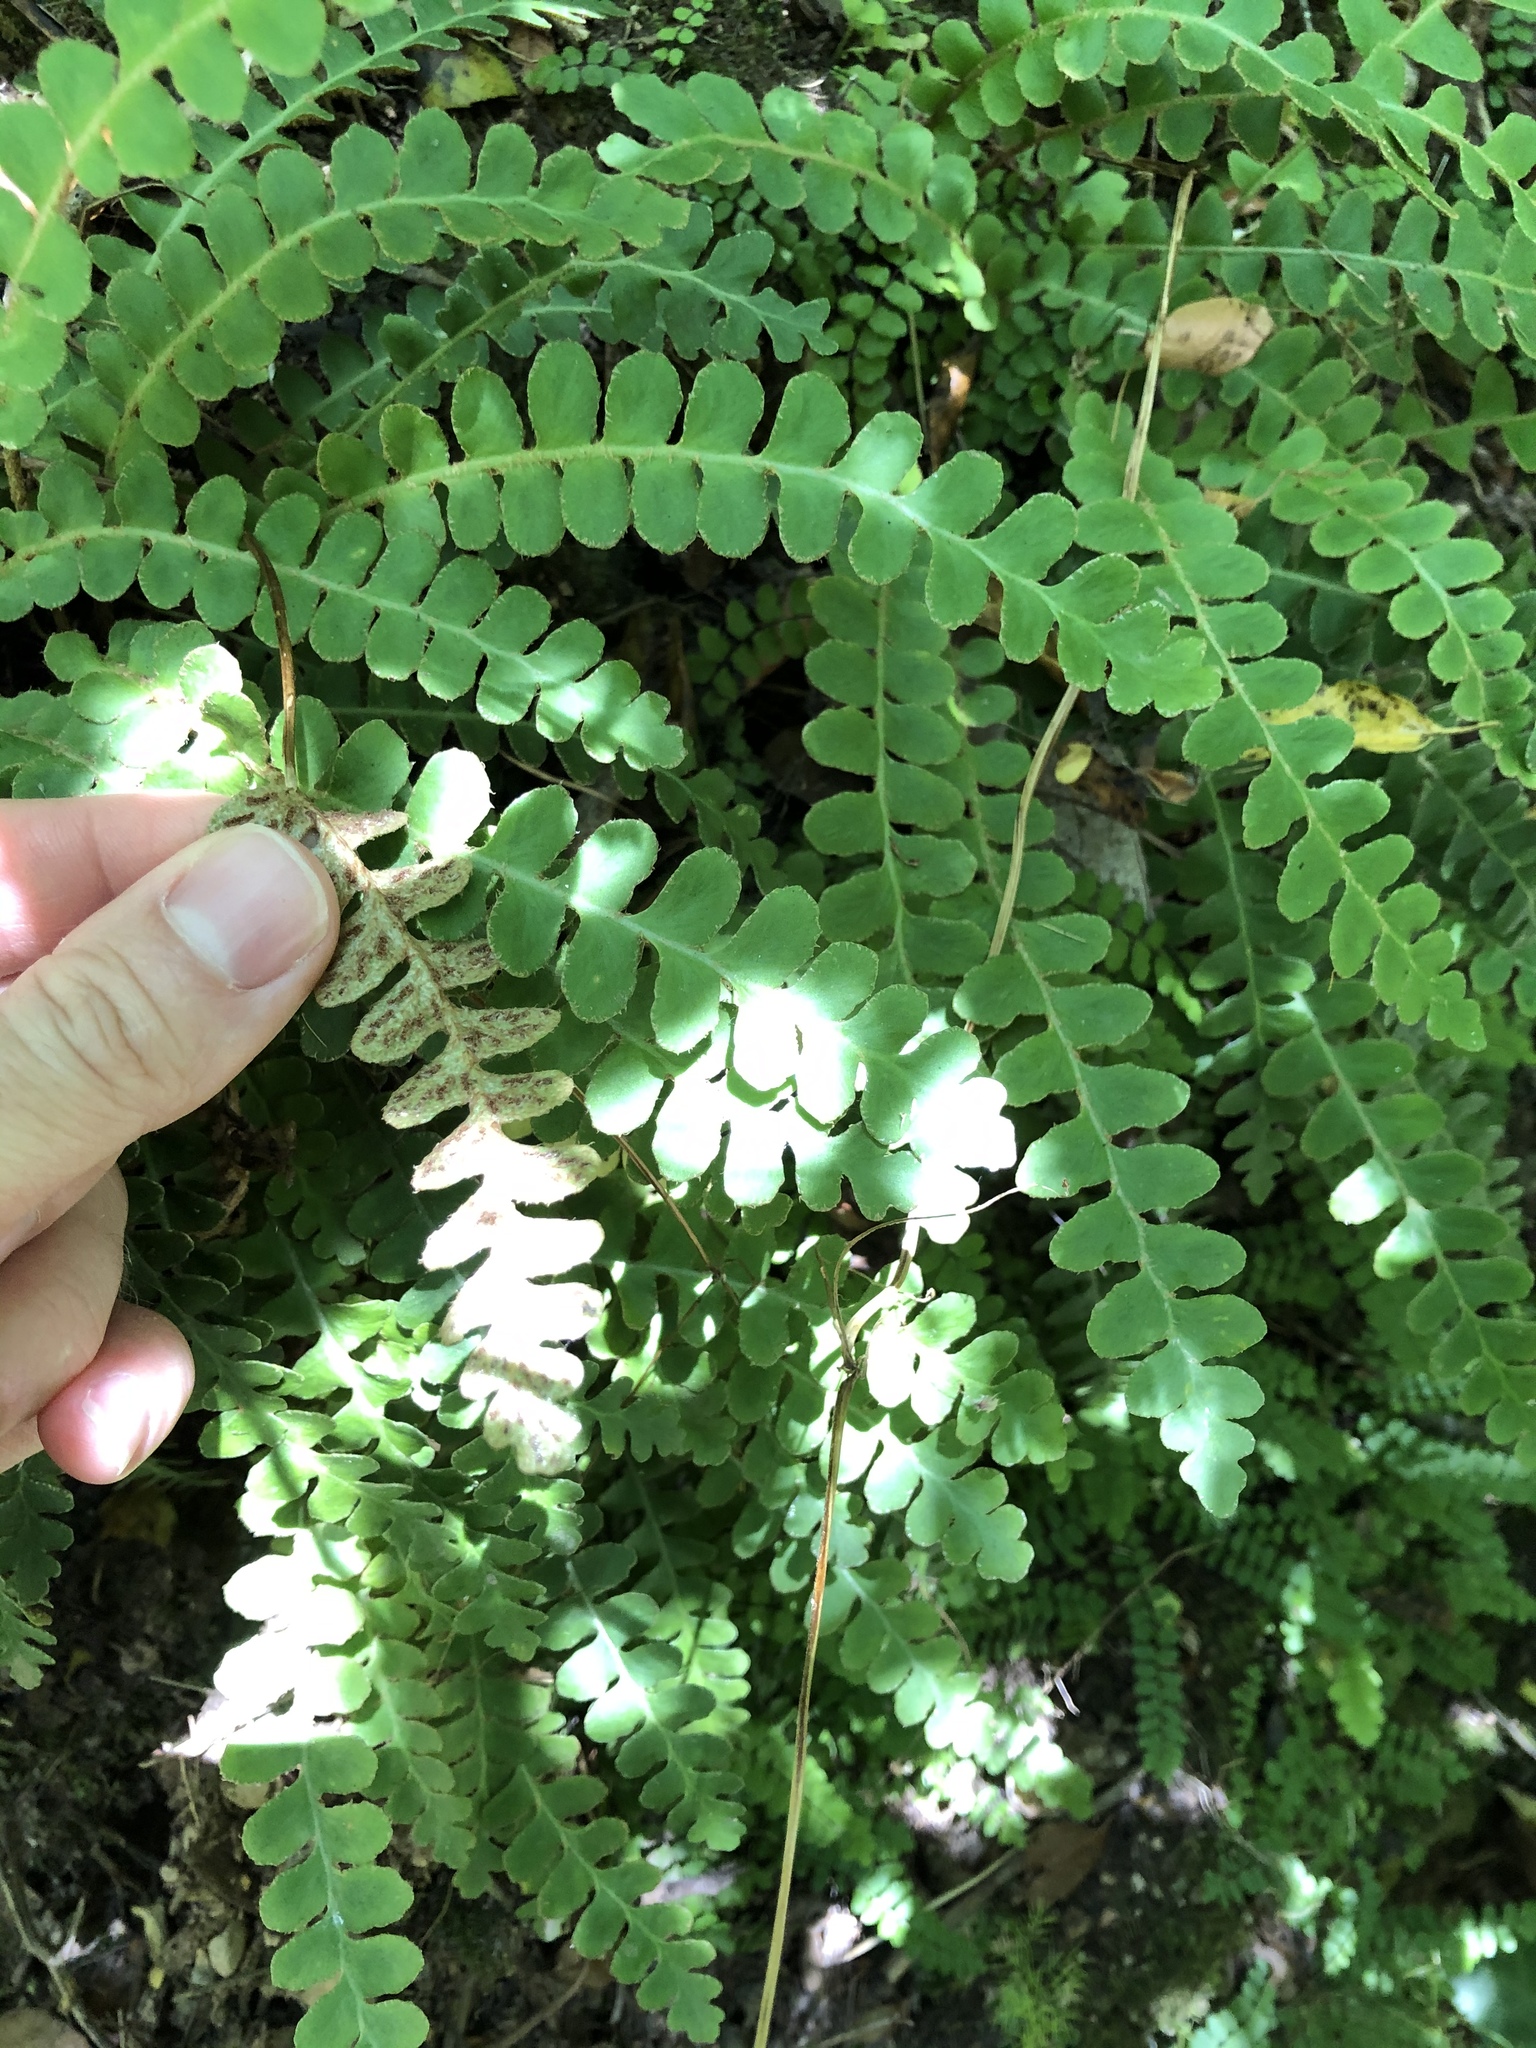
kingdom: Plantae
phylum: Tracheophyta
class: Polypodiopsida
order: Polypodiales
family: Aspleniaceae
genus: Asplenium
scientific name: Asplenium ceterach
